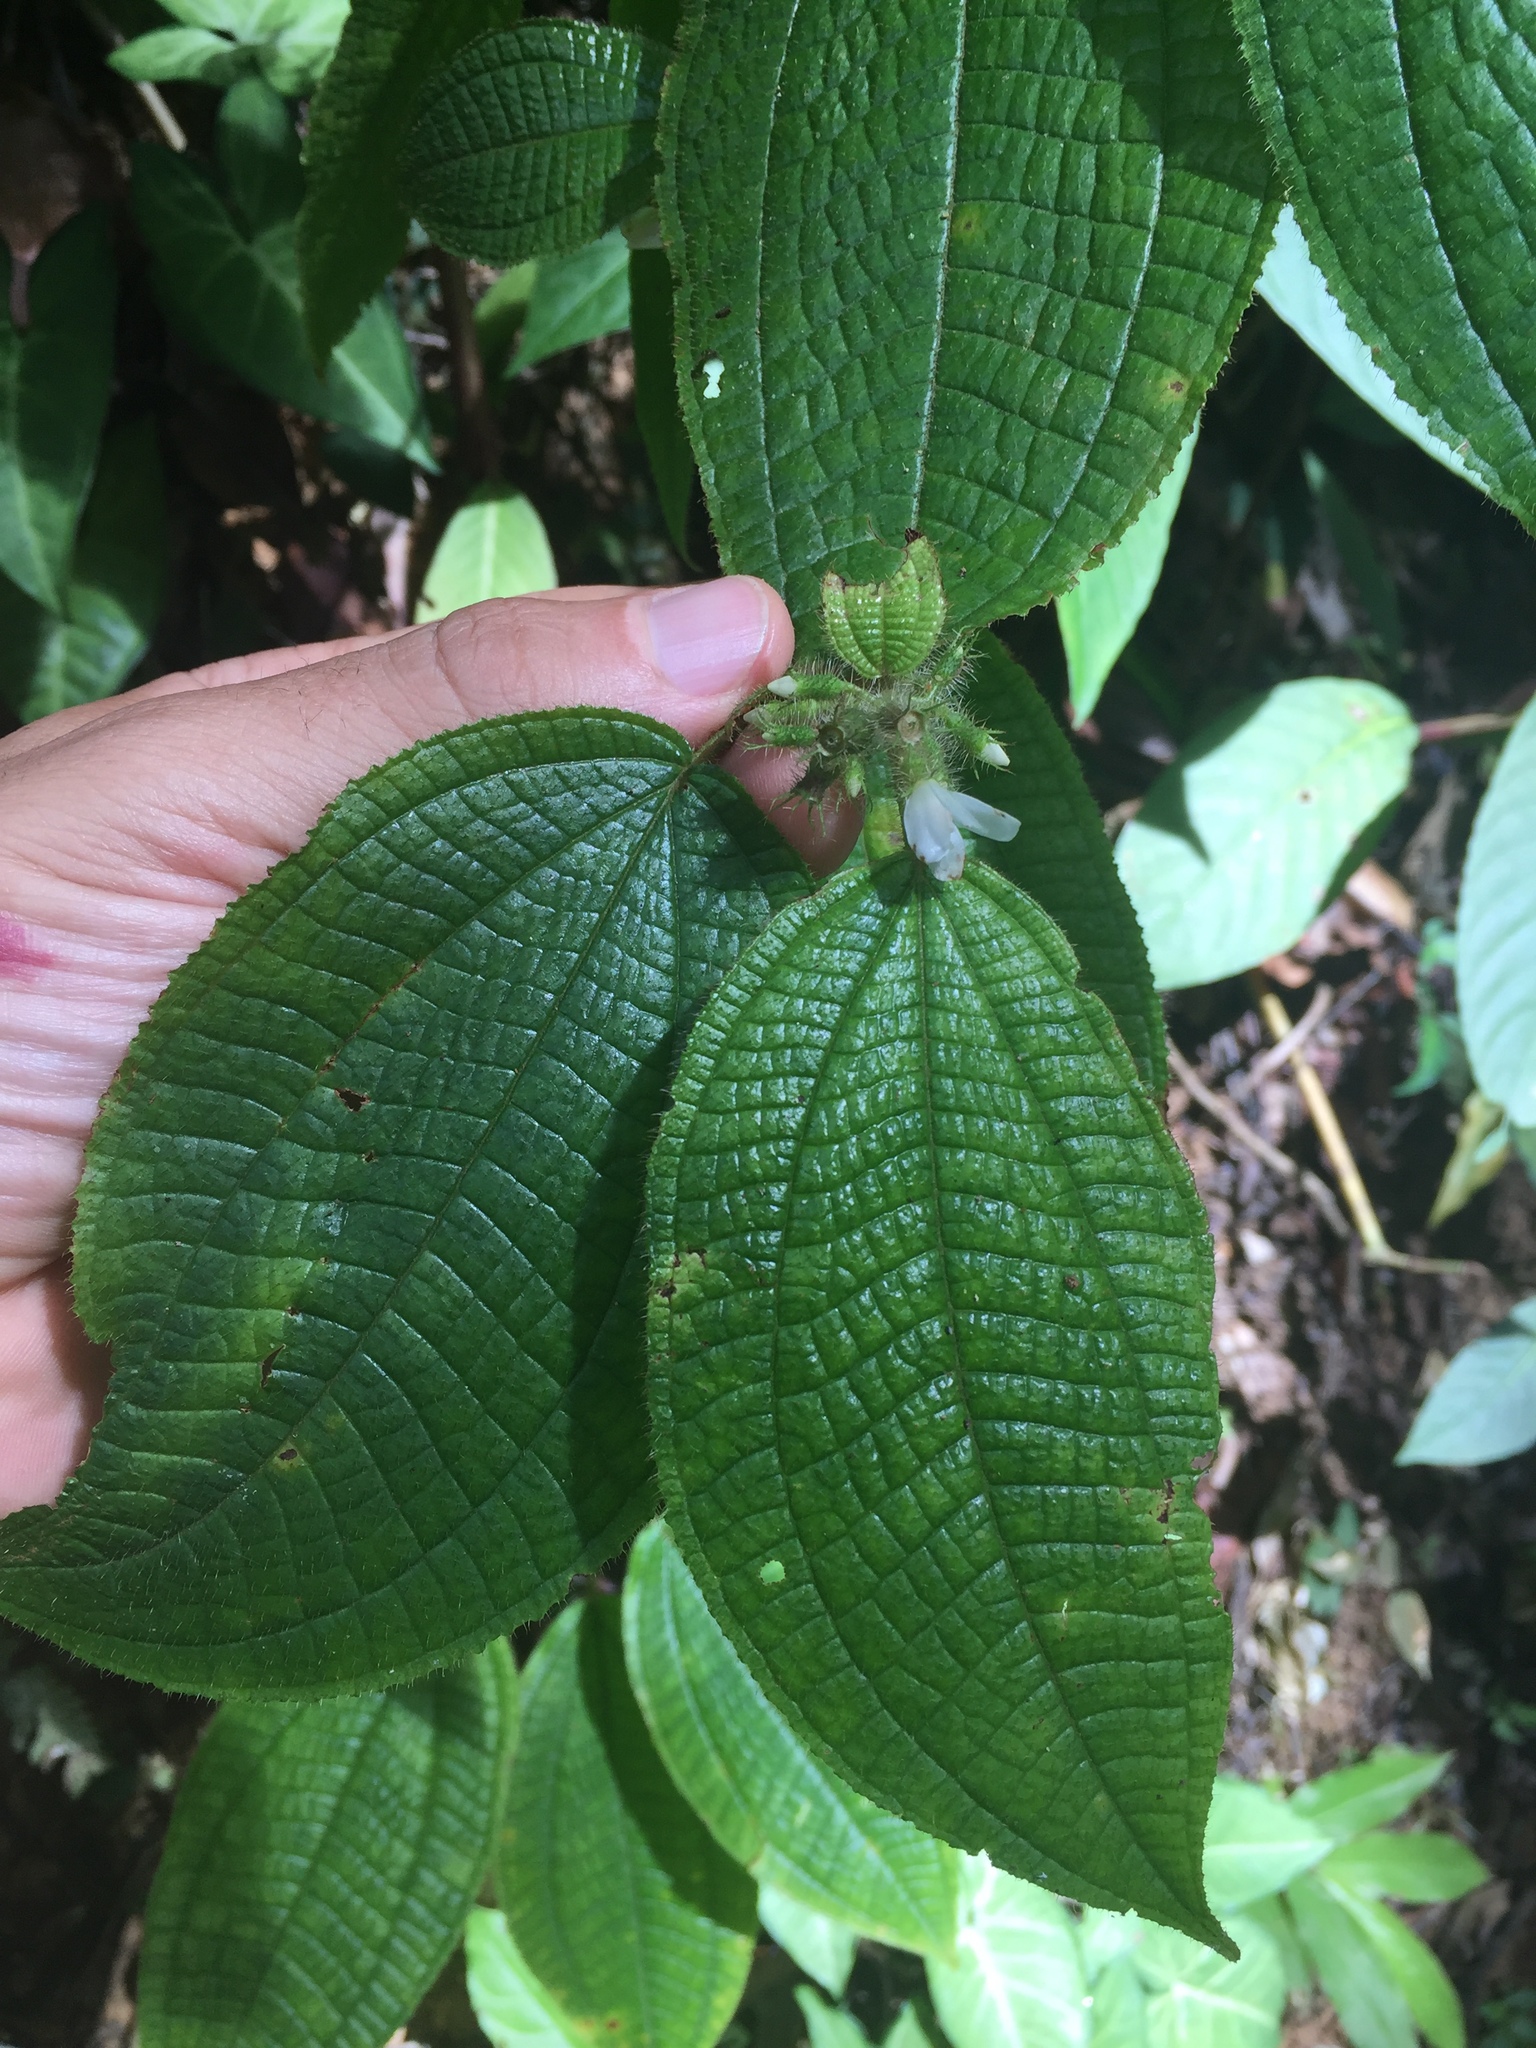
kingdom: Plantae
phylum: Tracheophyta
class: Magnoliopsida
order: Myrtales
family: Melastomataceae
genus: Miconia
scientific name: Miconia crenata
